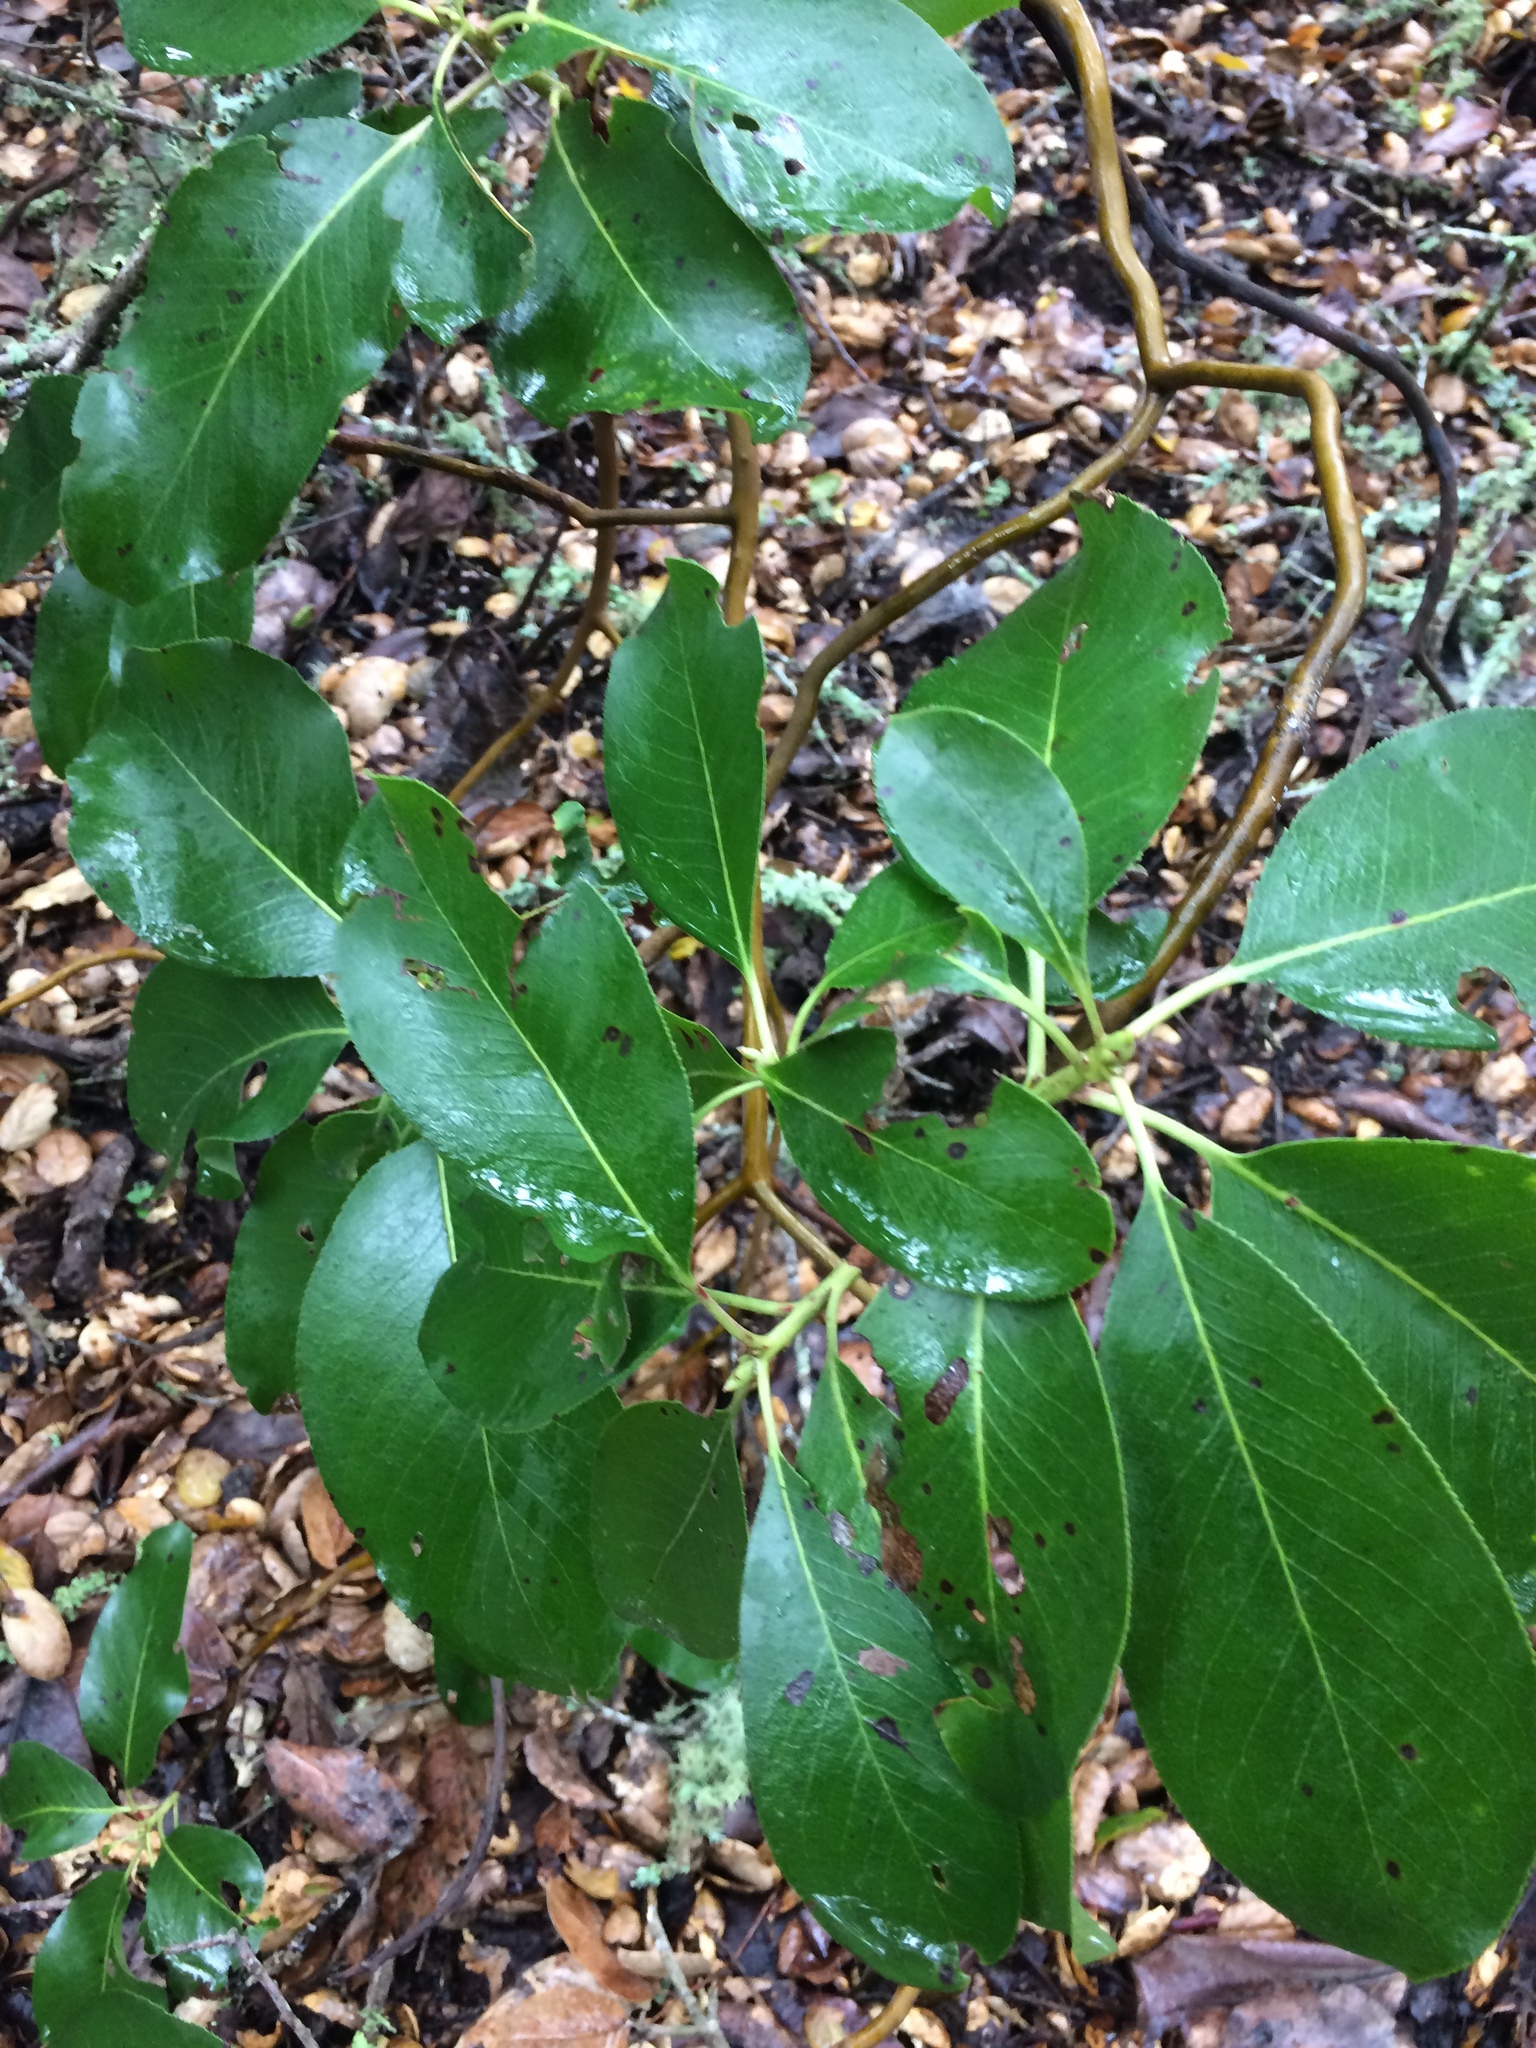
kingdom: Plantae
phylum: Tracheophyta
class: Magnoliopsida
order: Ericales
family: Ericaceae
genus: Arbutus
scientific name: Arbutus menziesii
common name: Pacific madrone
